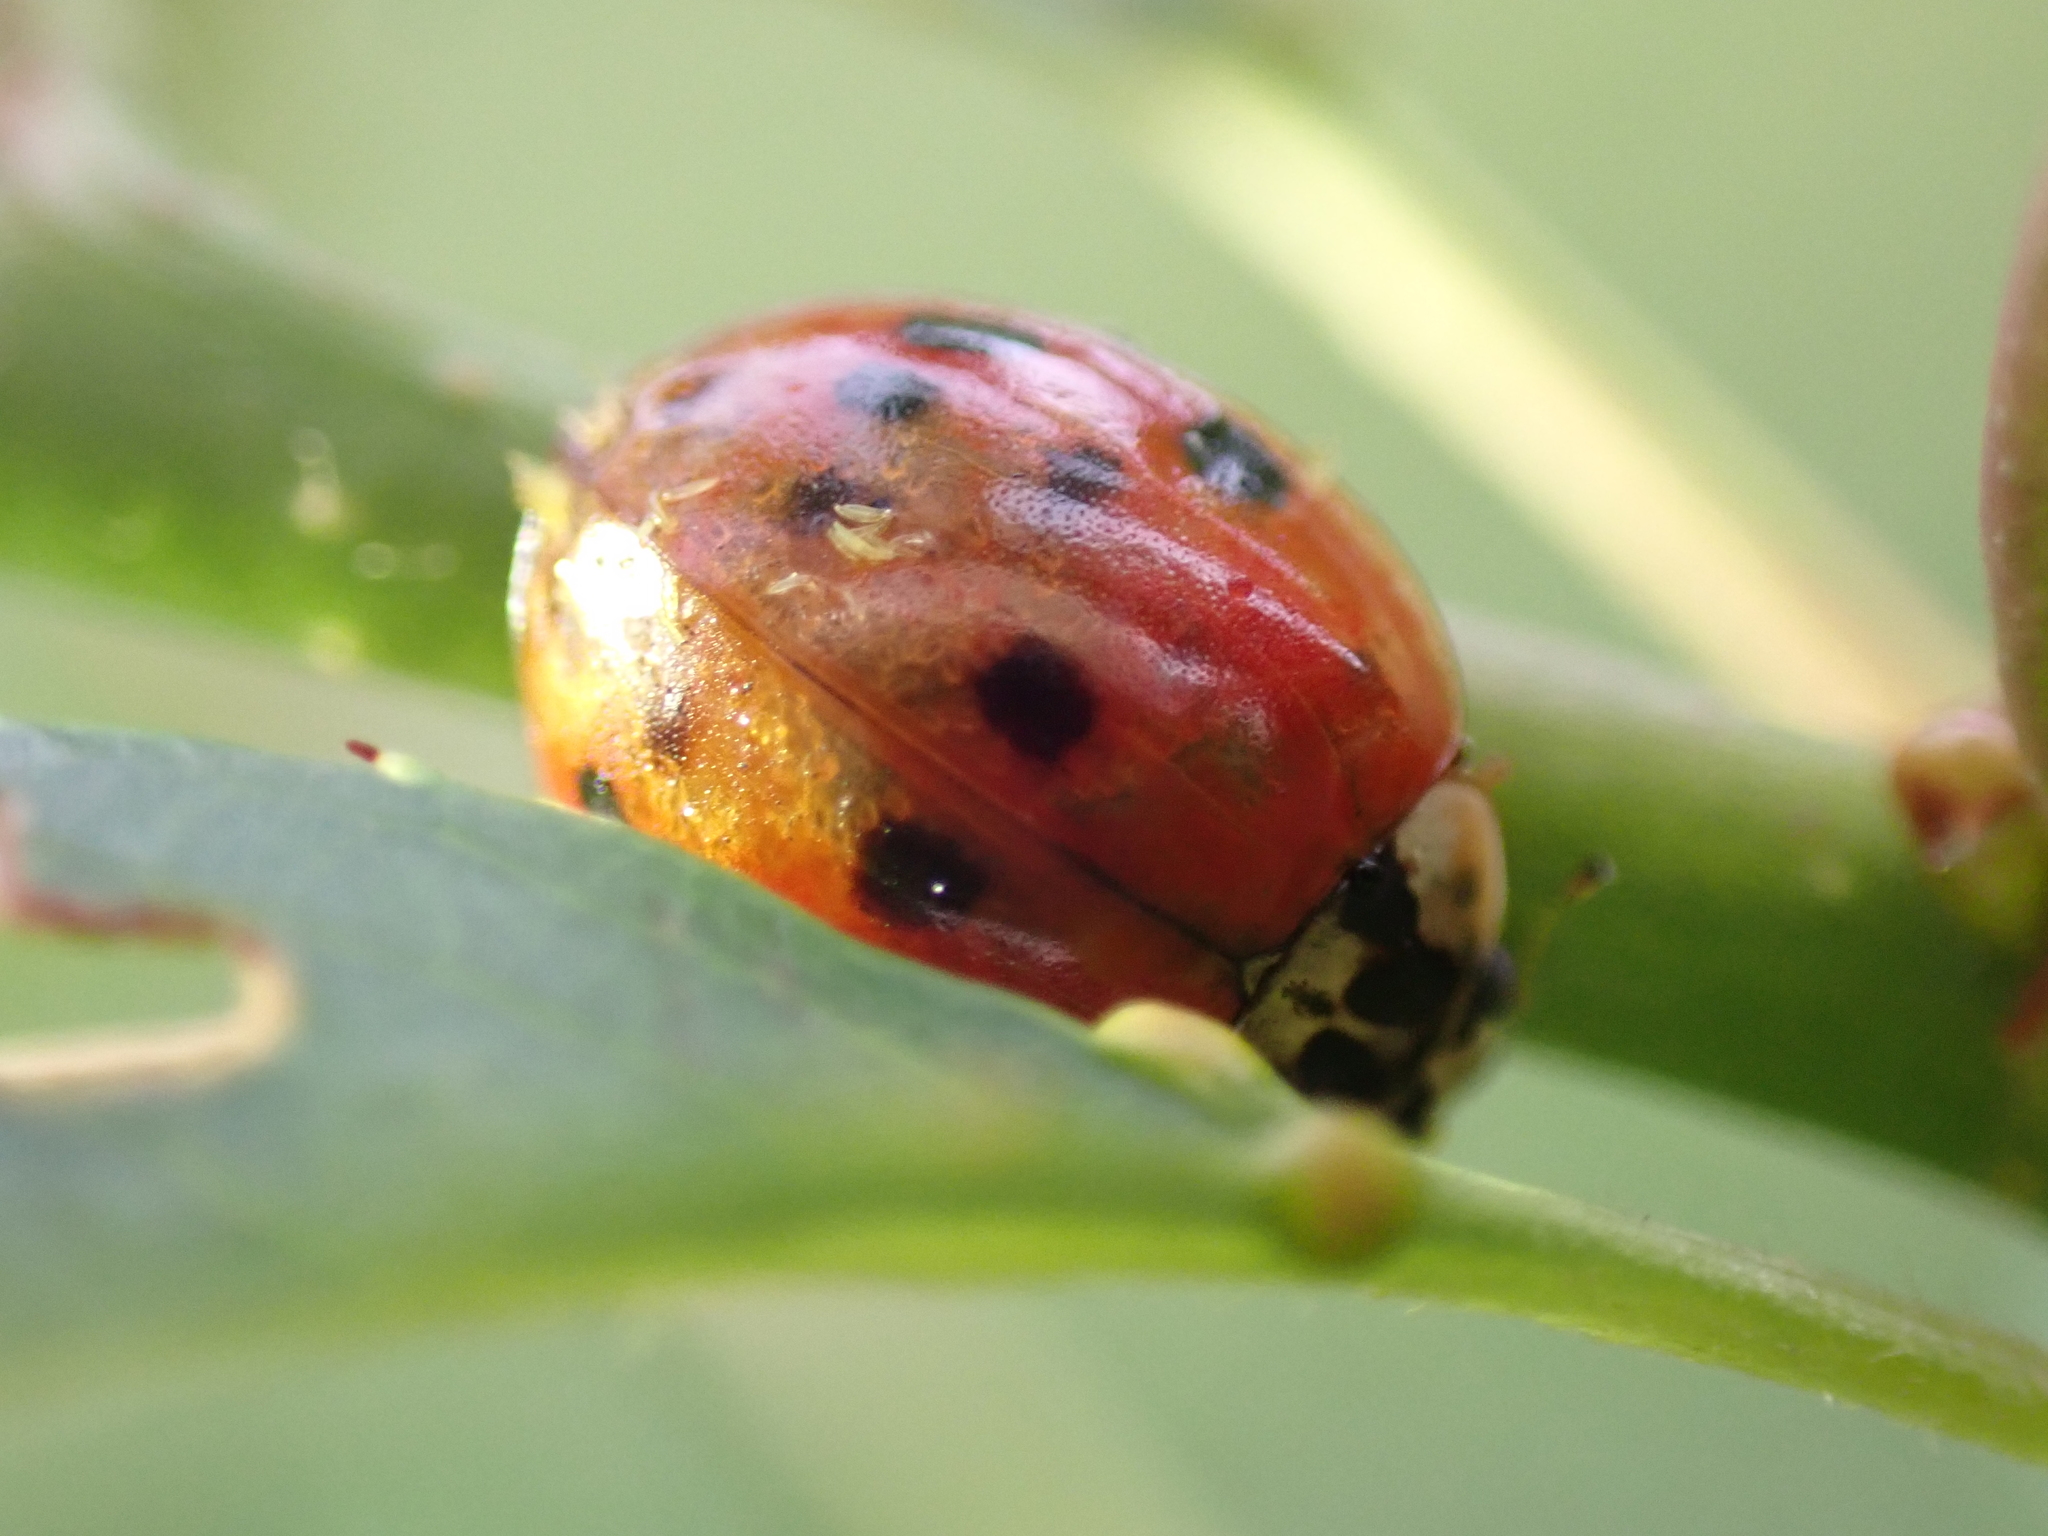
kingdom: Animalia
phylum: Arthropoda
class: Insecta
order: Coleoptera
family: Coccinellidae
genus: Harmonia
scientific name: Harmonia axyridis
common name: Harlequin ladybird
